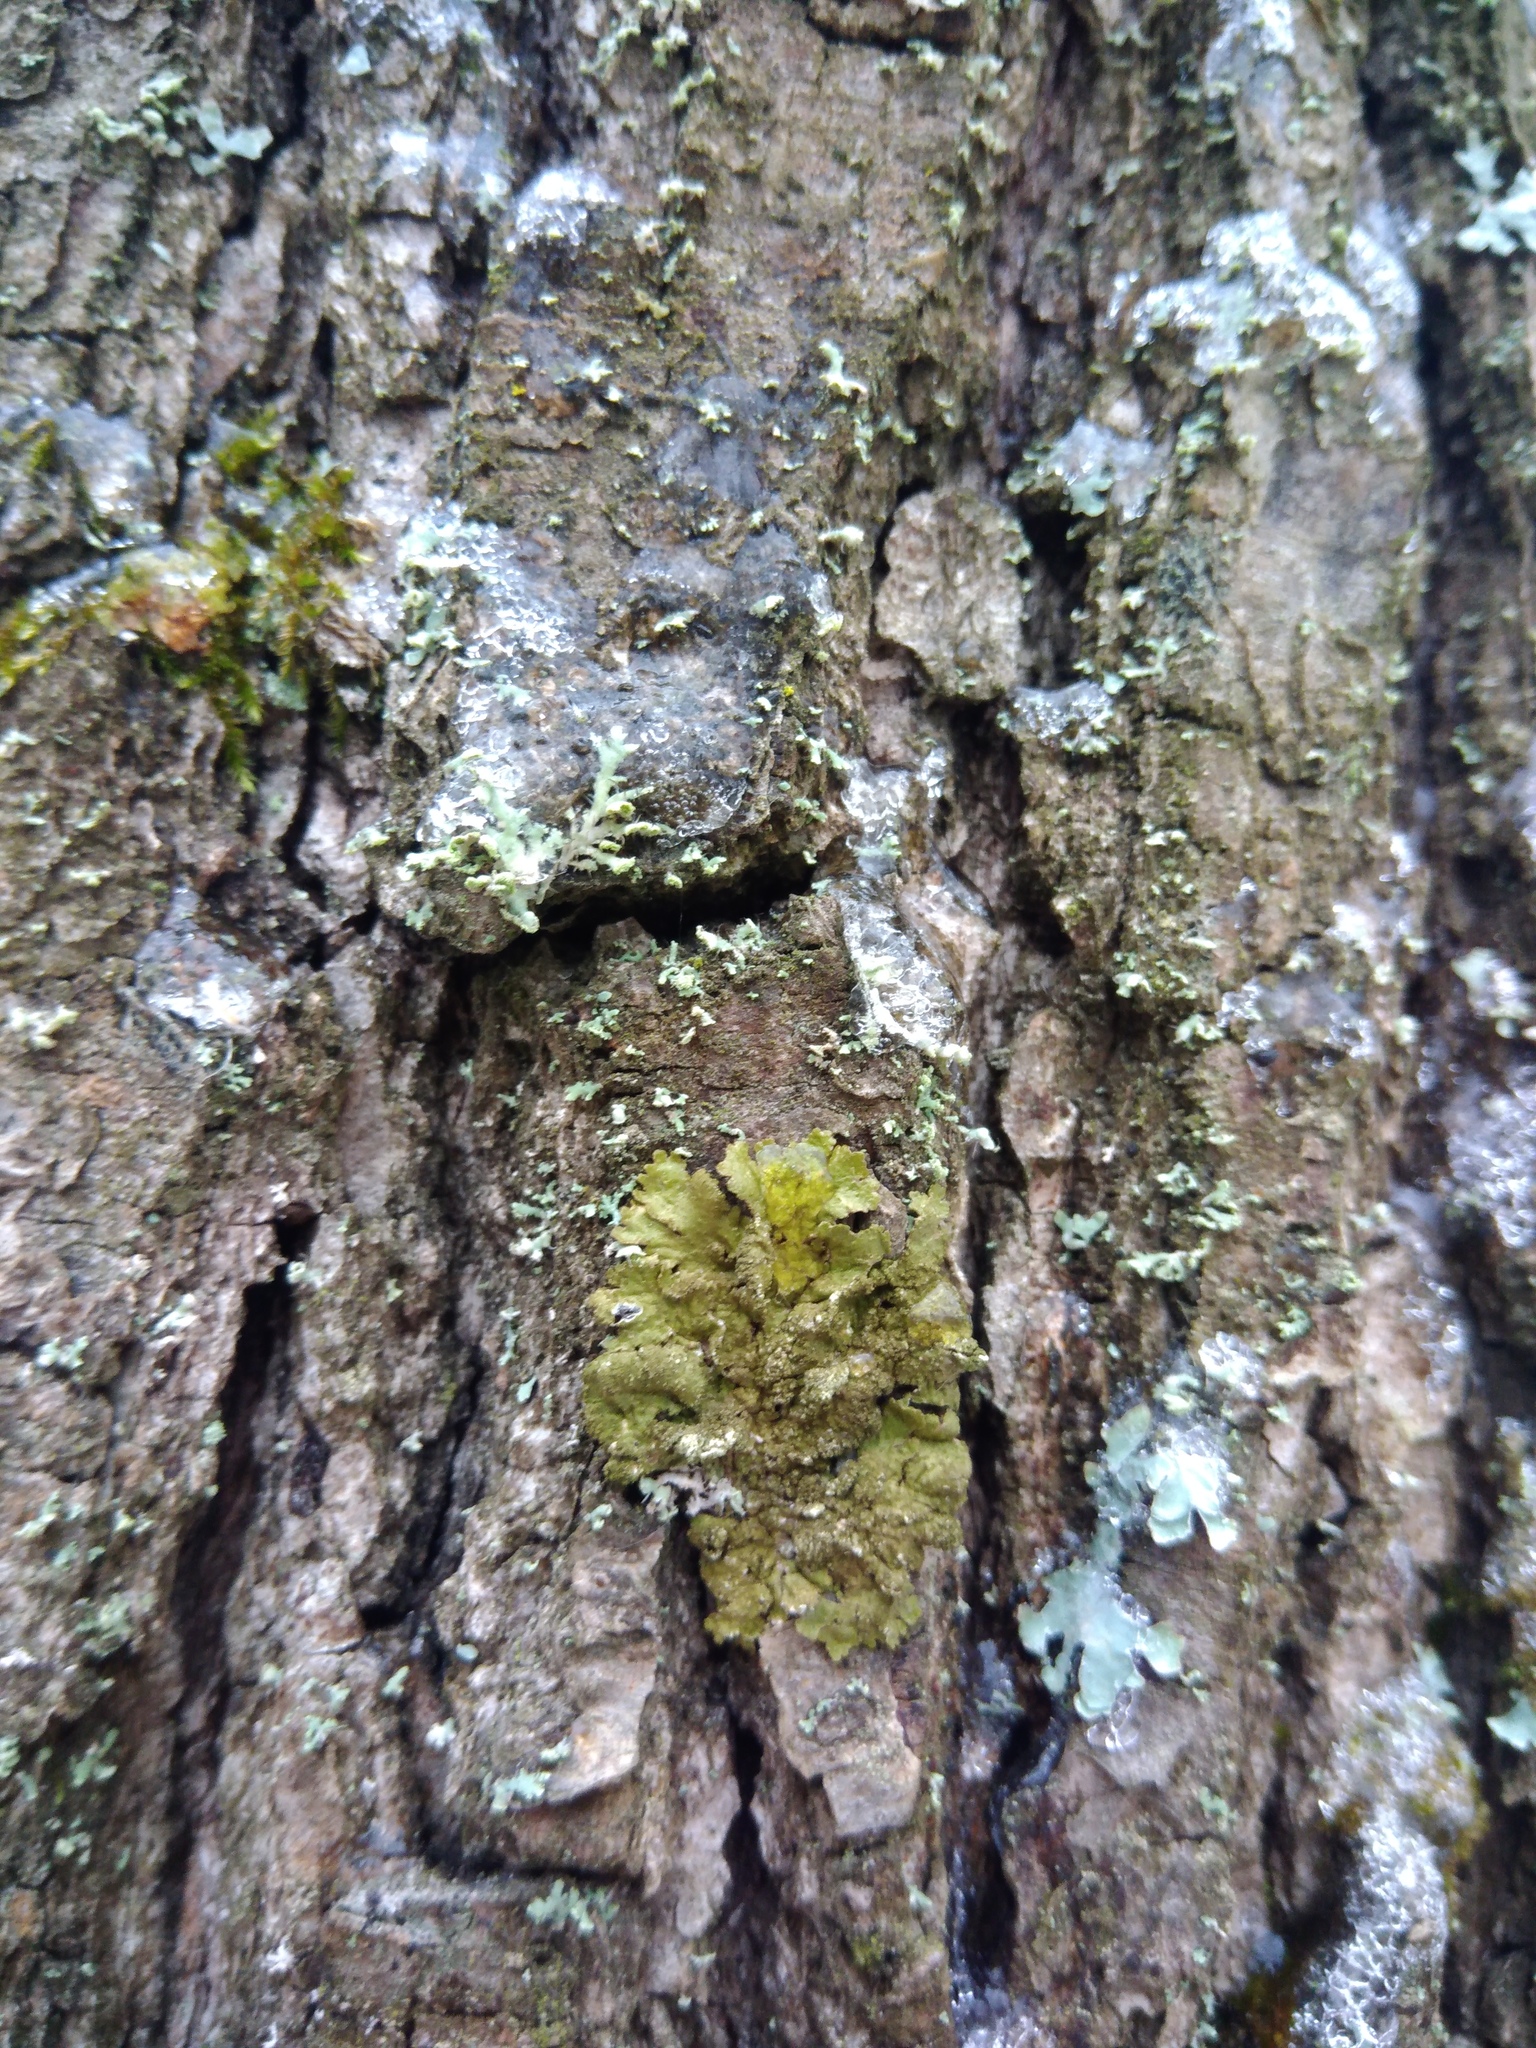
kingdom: Fungi
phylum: Ascomycota
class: Lecanoromycetes
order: Lecanorales
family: Parmeliaceae
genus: Melanelixia
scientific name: Melanelixia subaurifera
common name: Abraded camouflage lichen
